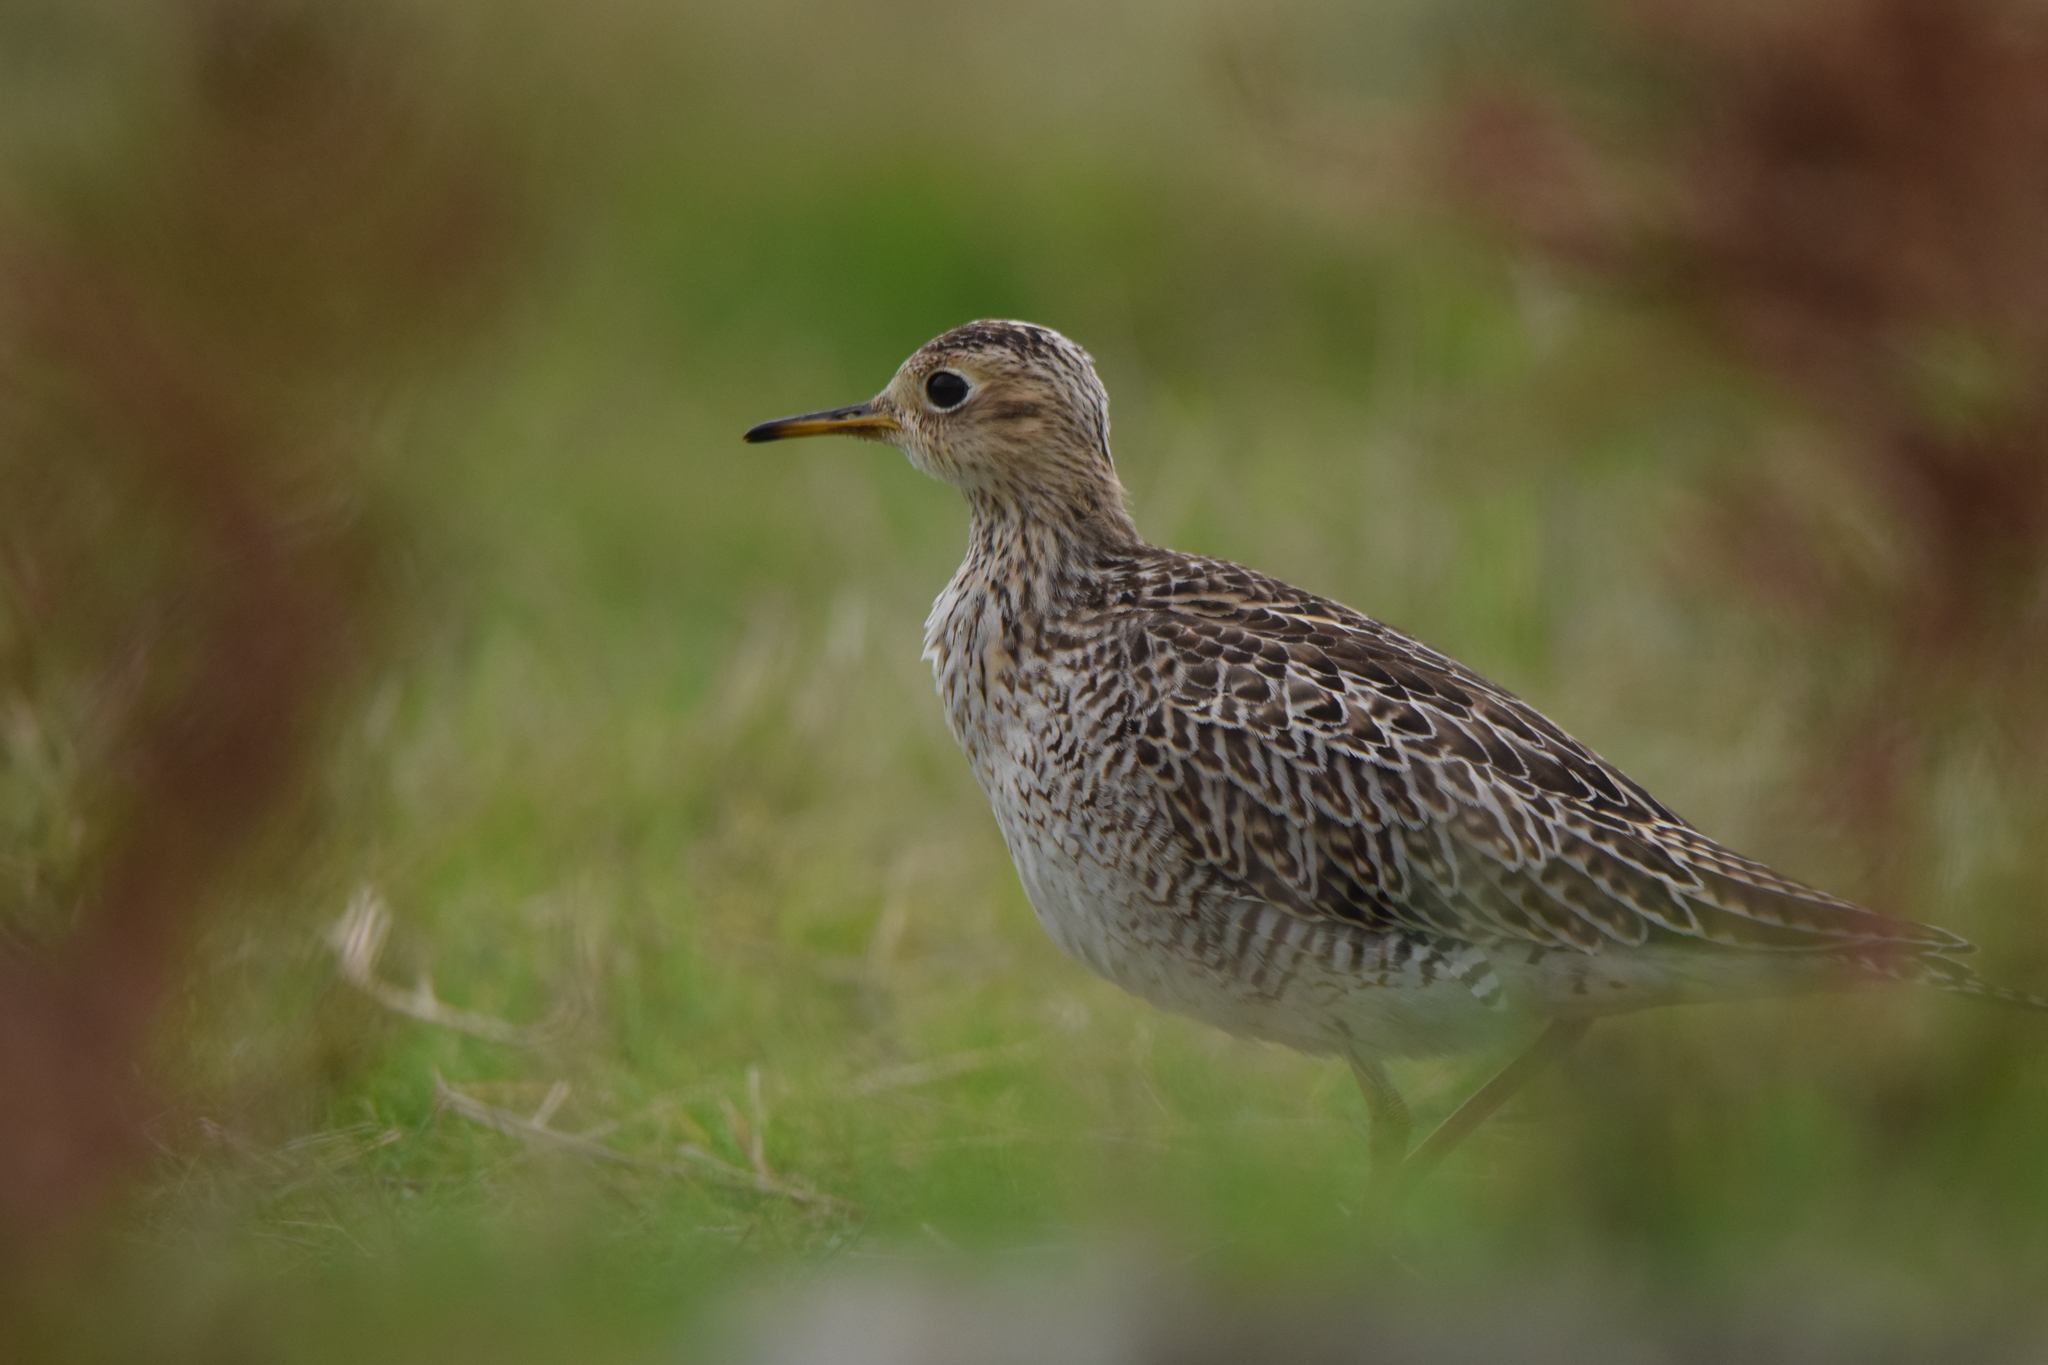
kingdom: Animalia
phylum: Chordata
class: Aves
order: Charadriiformes
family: Scolopacidae
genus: Bartramia
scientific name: Bartramia longicauda
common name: Upland sandpiper
